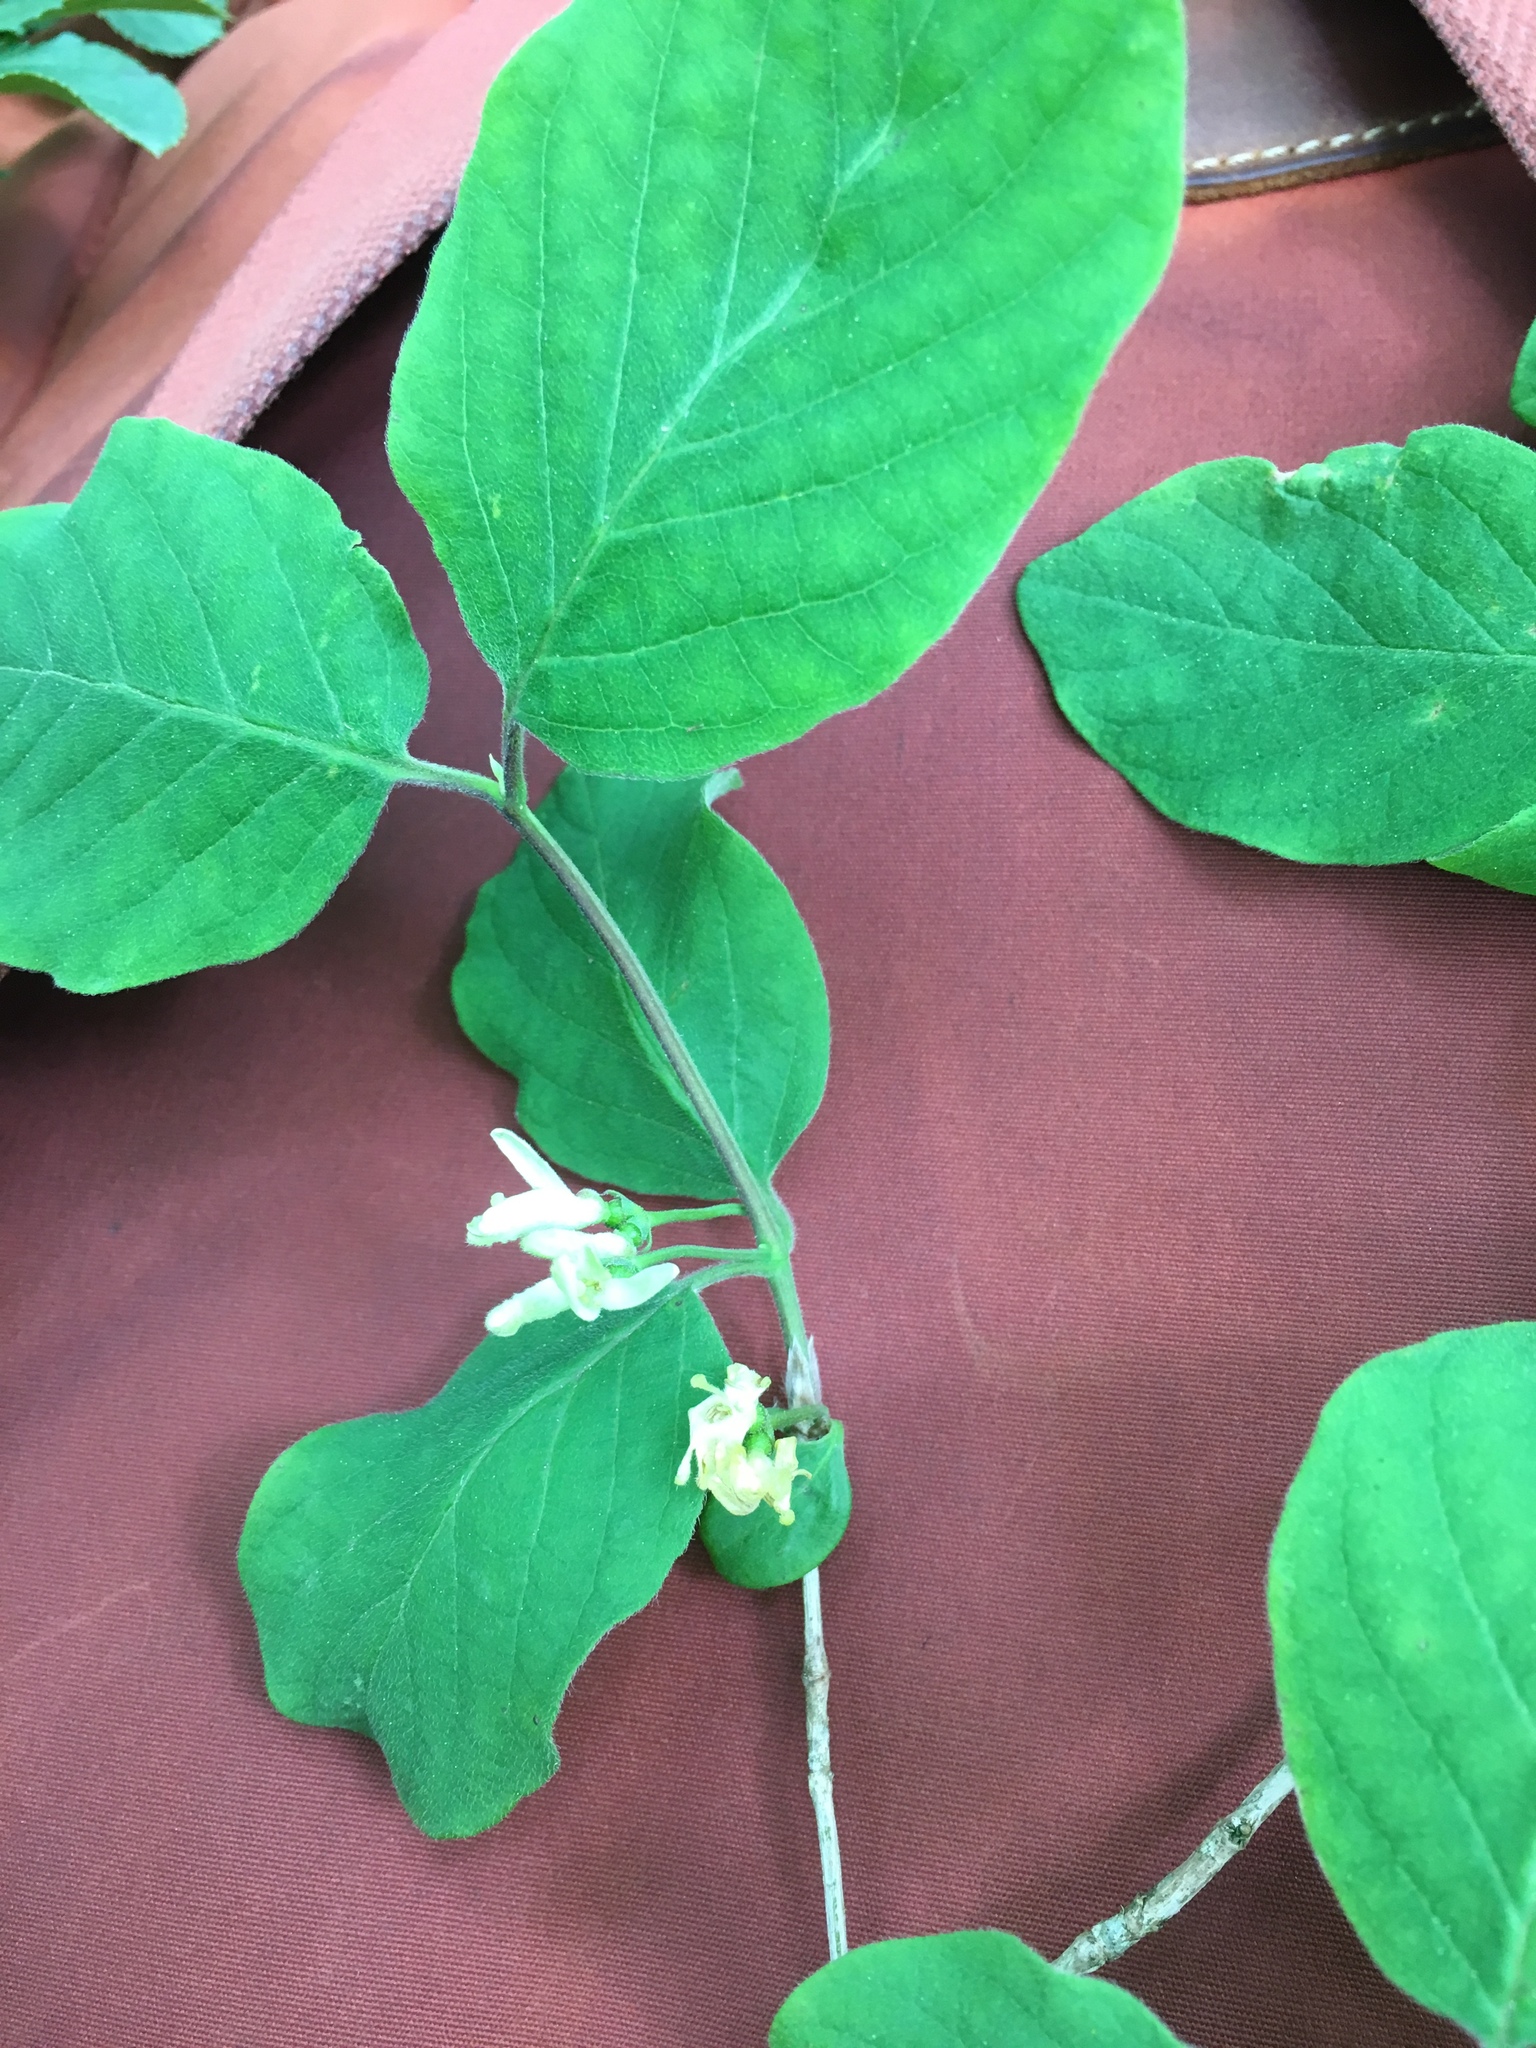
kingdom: Plantae
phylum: Tracheophyta
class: Magnoliopsida
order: Dipsacales
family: Caprifoliaceae
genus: Lonicera
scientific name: Lonicera xylosteum
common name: Fly honeysuckle
